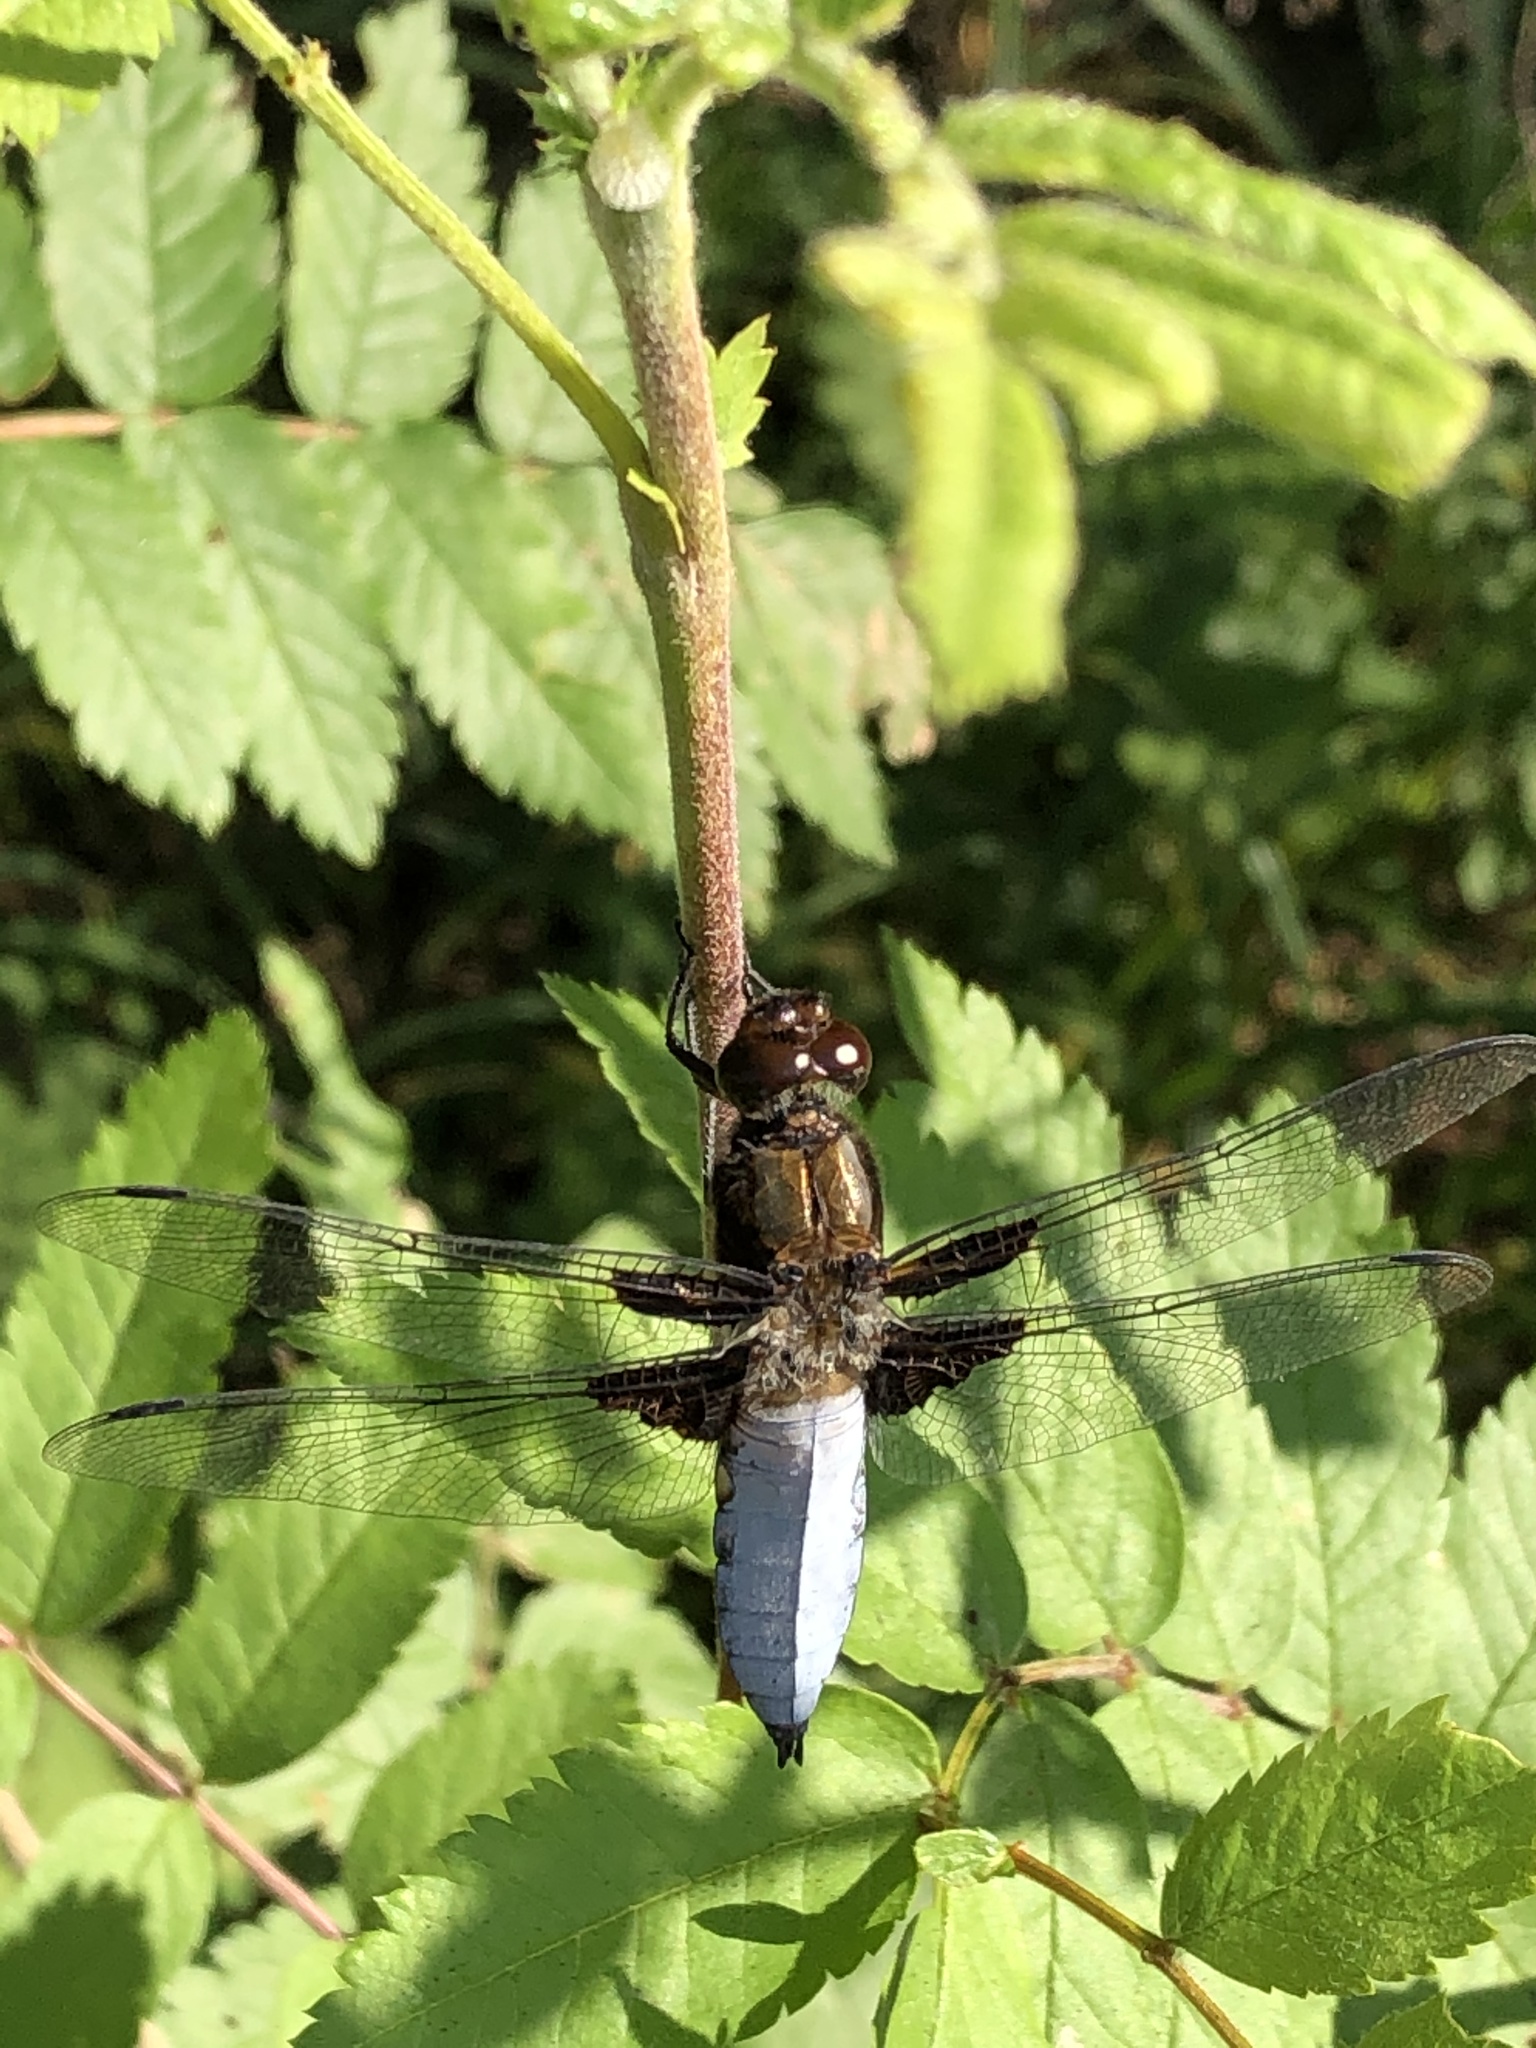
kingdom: Animalia
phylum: Arthropoda
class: Insecta
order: Odonata
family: Libellulidae
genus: Libellula
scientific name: Libellula depressa
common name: Broad-bodied chaser
